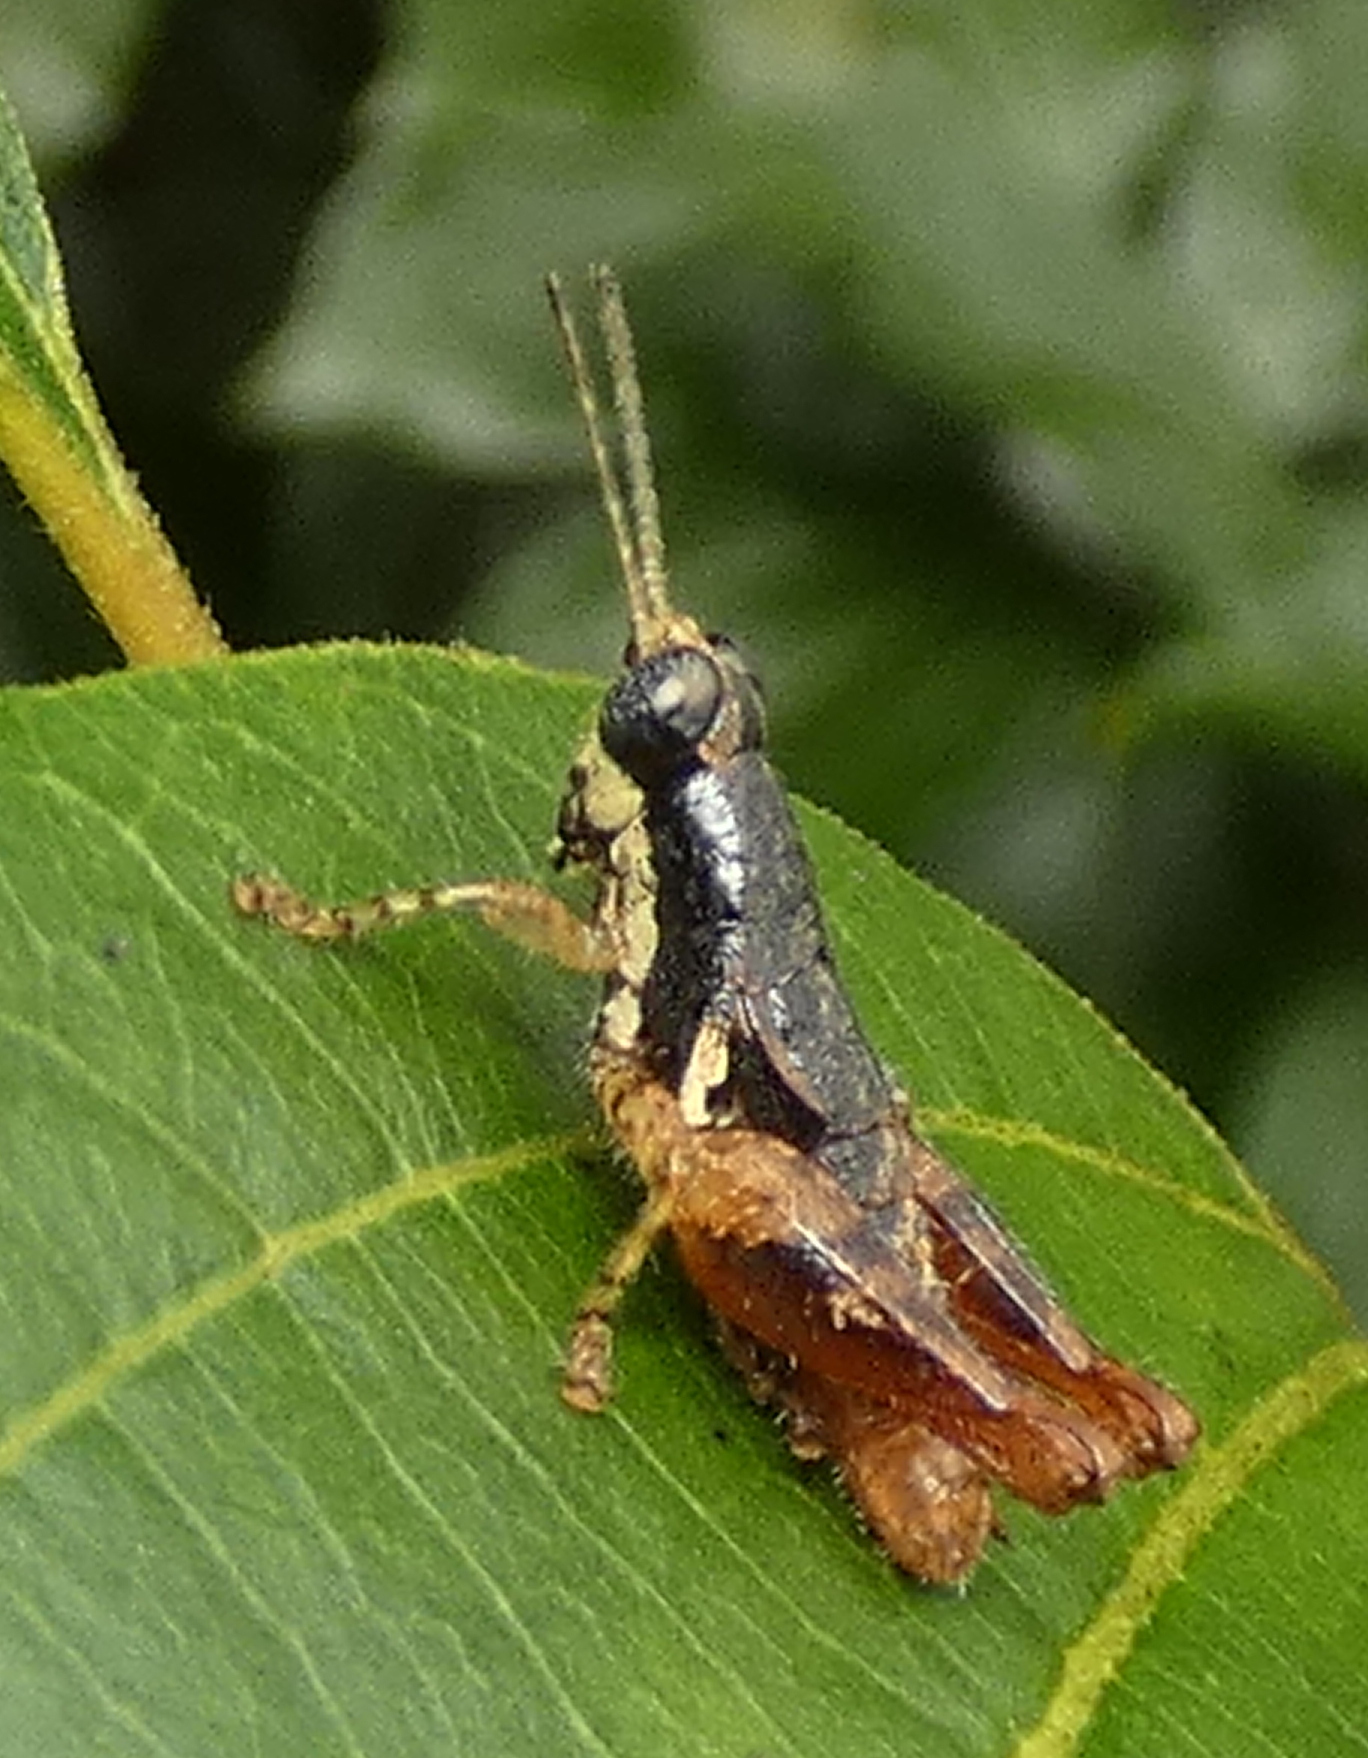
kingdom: Animalia
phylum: Arthropoda
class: Insecta
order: Orthoptera
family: Acrididae
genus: Eujivarus
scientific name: Eujivarus meridionalis
